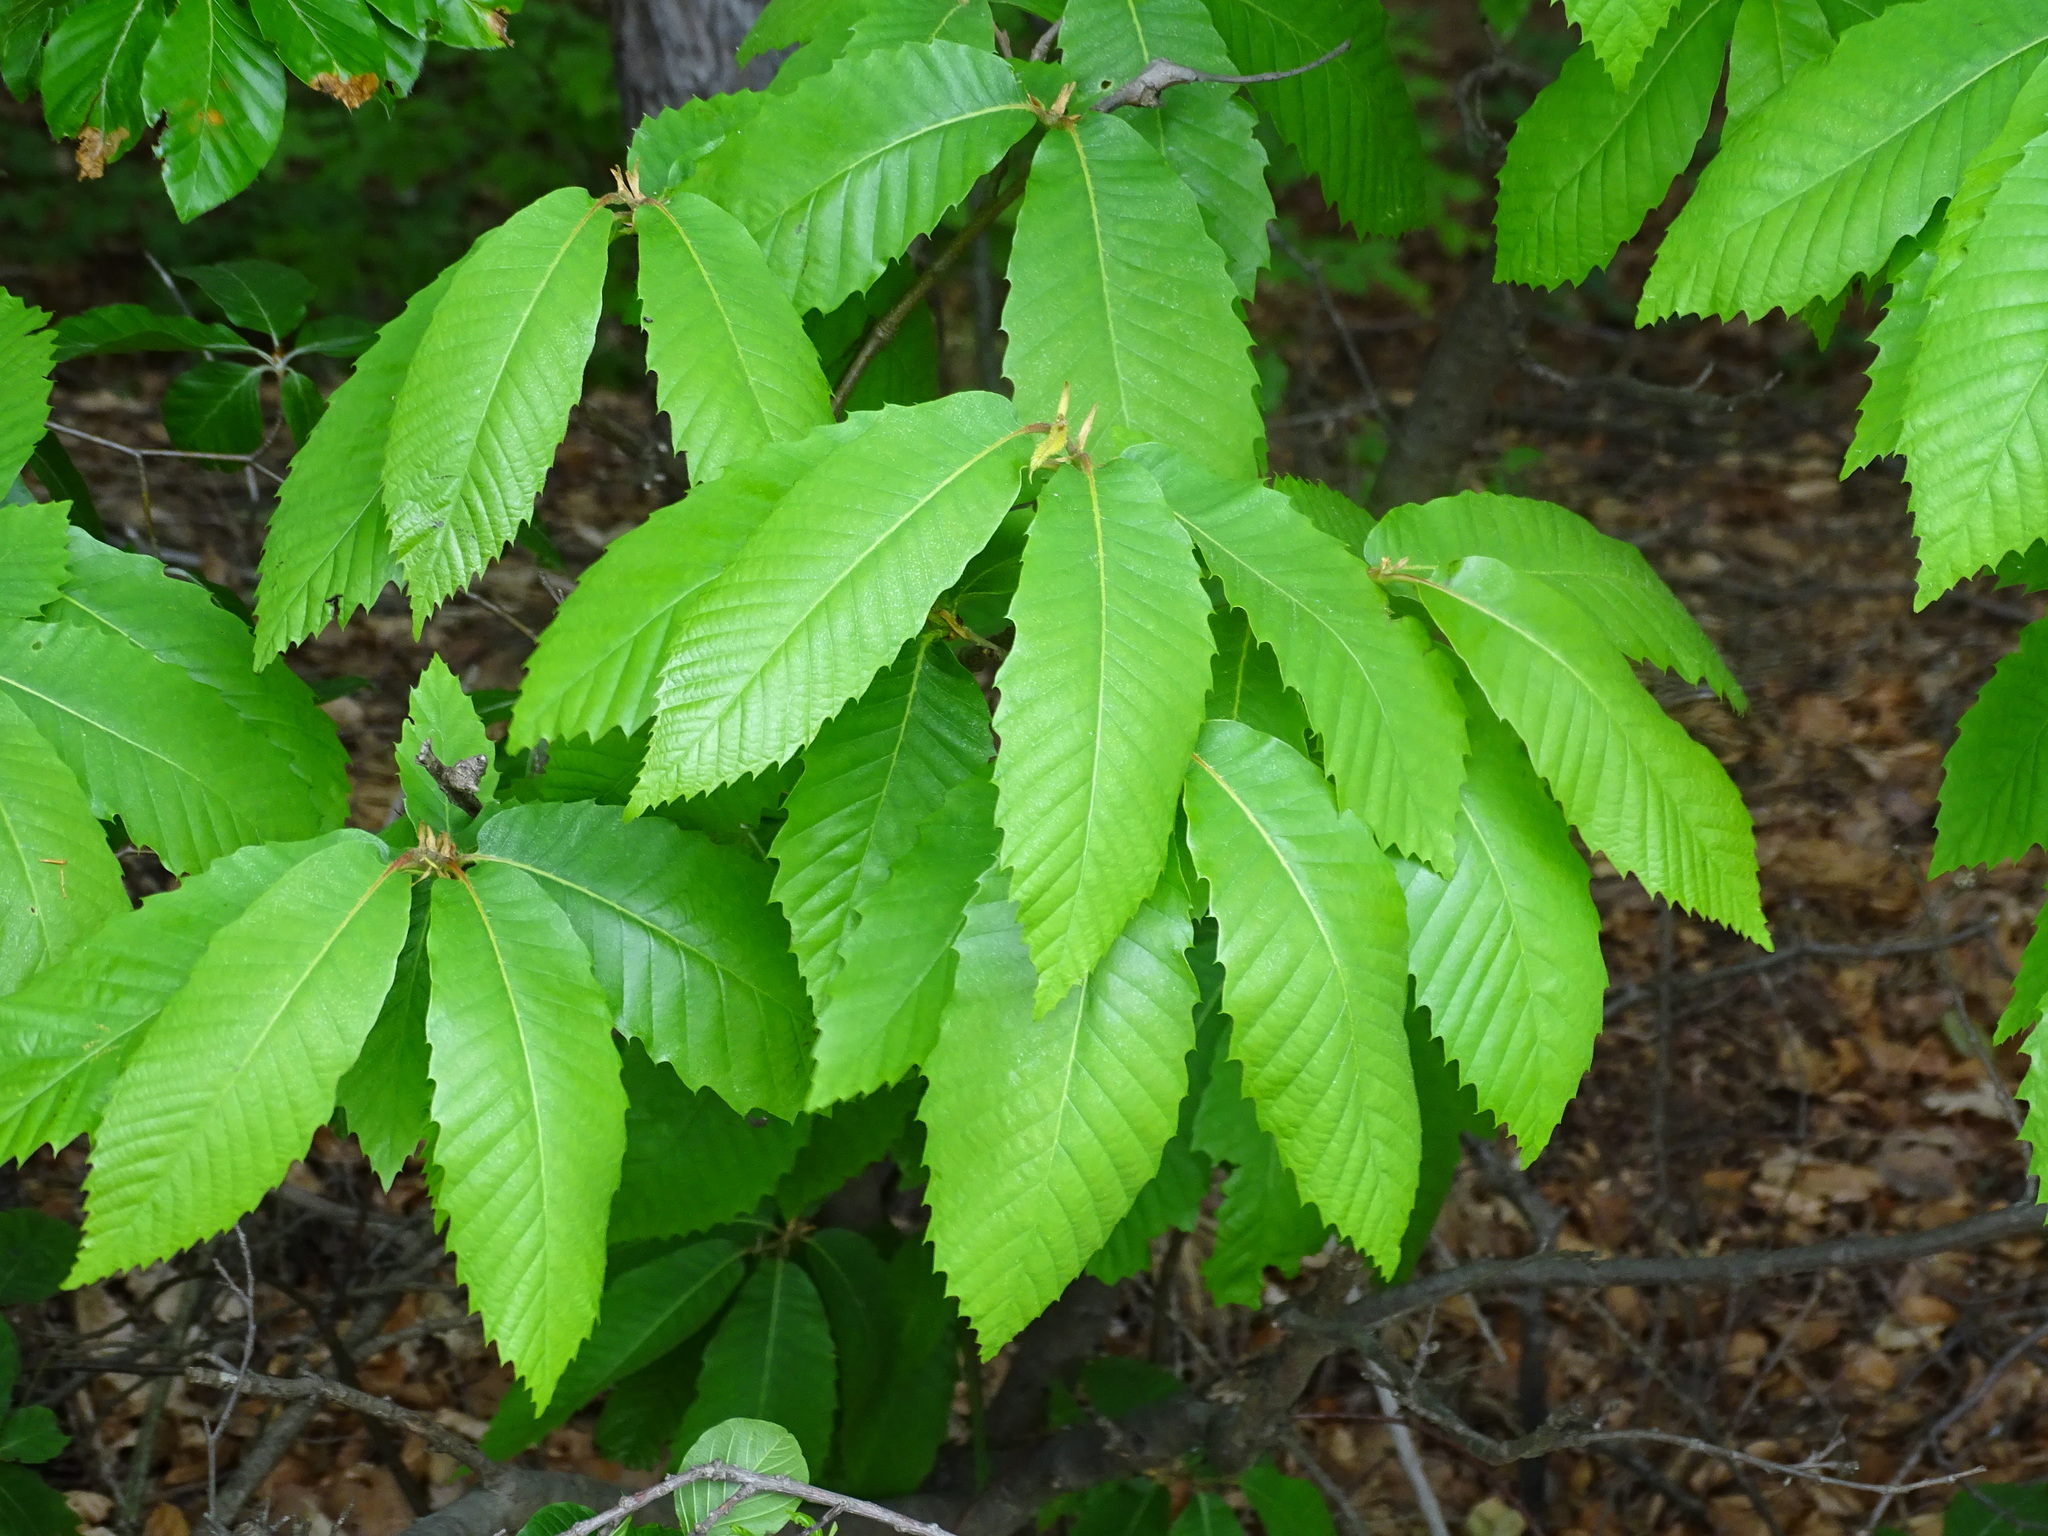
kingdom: Plantae
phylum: Tracheophyta
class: Magnoliopsida
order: Fagales
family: Fagaceae
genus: Castanea
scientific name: Castanea sativa
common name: Sweet chestnut
